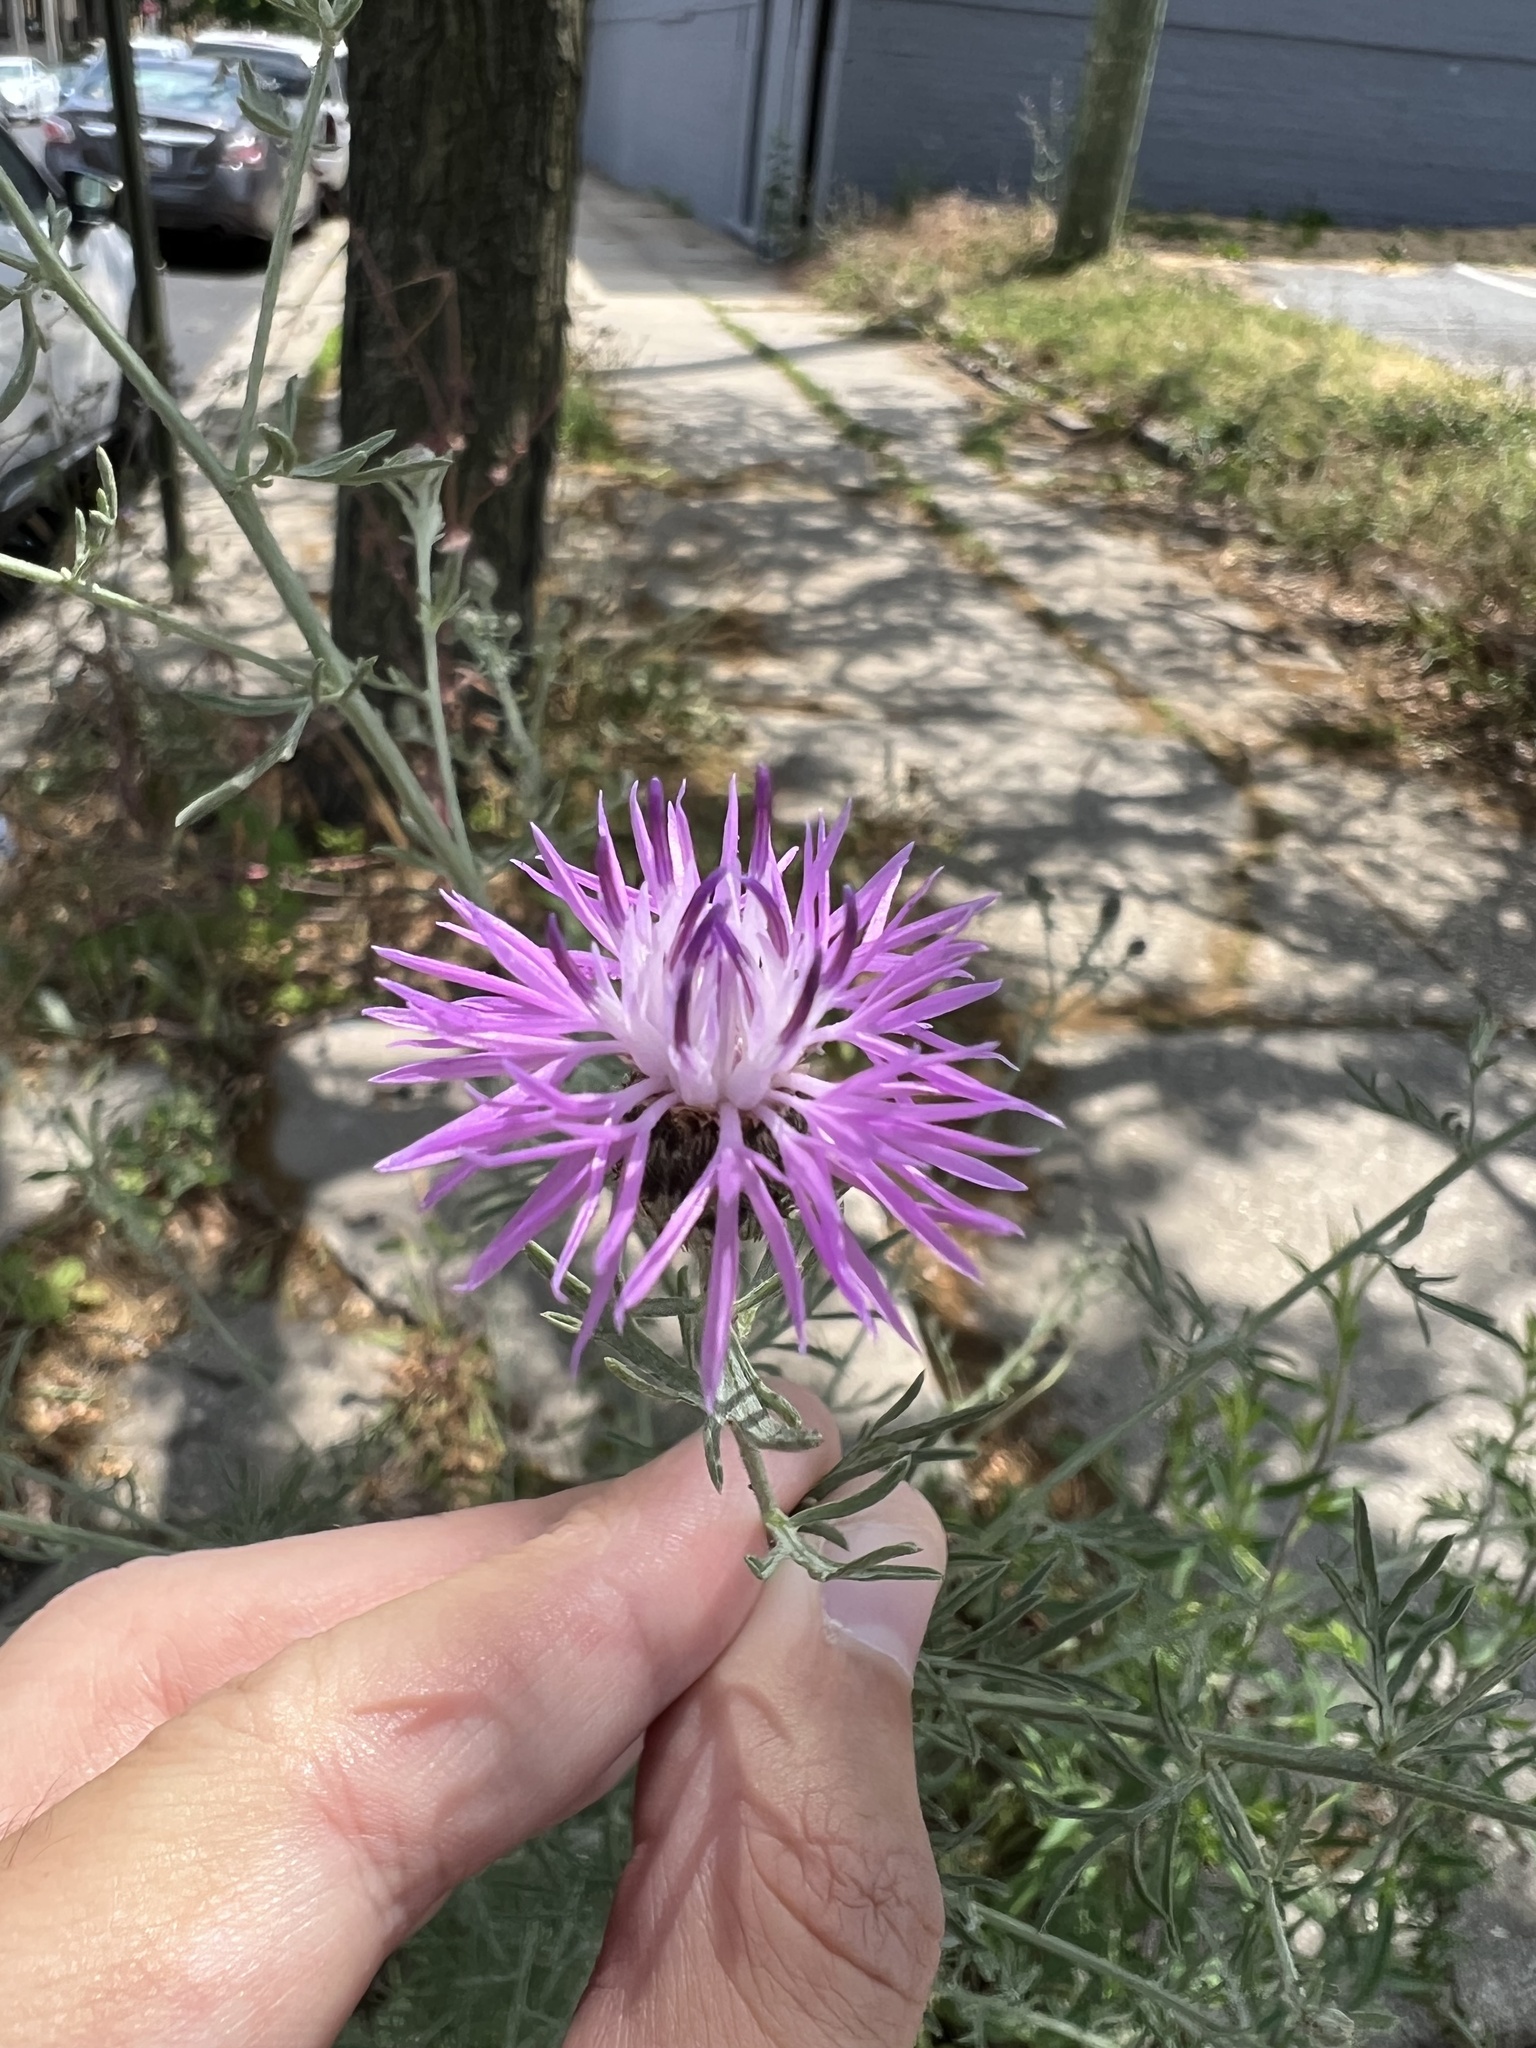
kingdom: Plantae
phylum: Tracheophyta
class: Magnoliopsida
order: Asterales
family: Asteraceae
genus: Centaurea
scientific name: Centaurea stoebe
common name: Spotted knapweed
